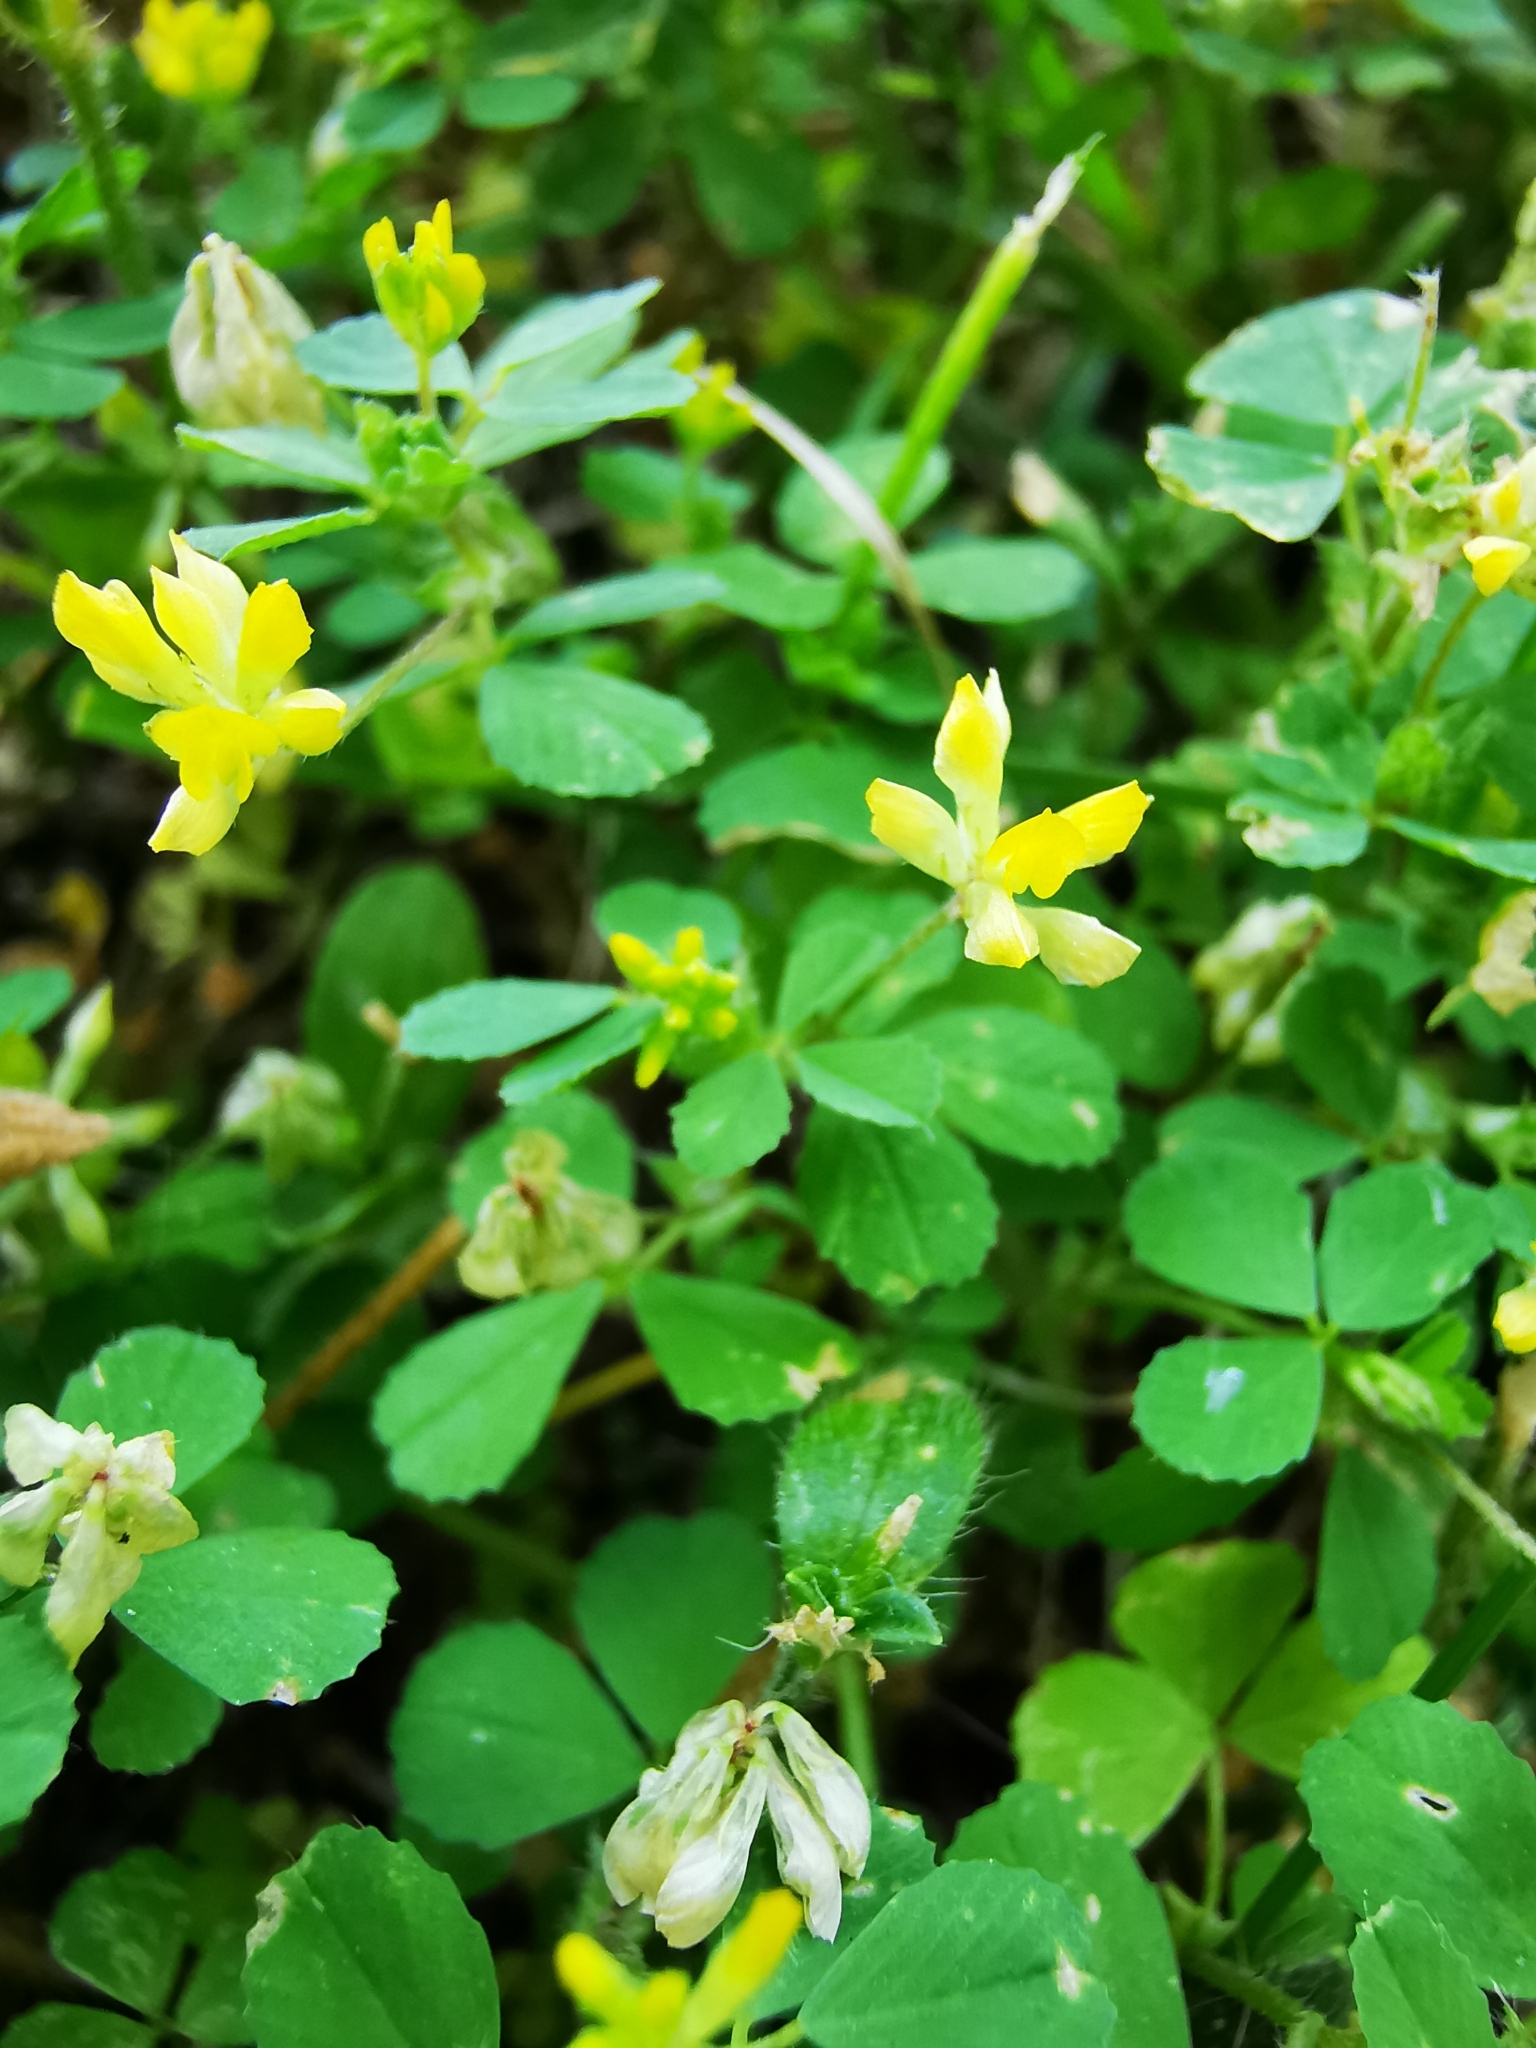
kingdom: Plantae
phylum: Tracheophyta
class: Magnoliopsida
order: Fabales
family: Fabaceae
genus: Trifolium
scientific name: Trifolium dubium
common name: Suckling clover
